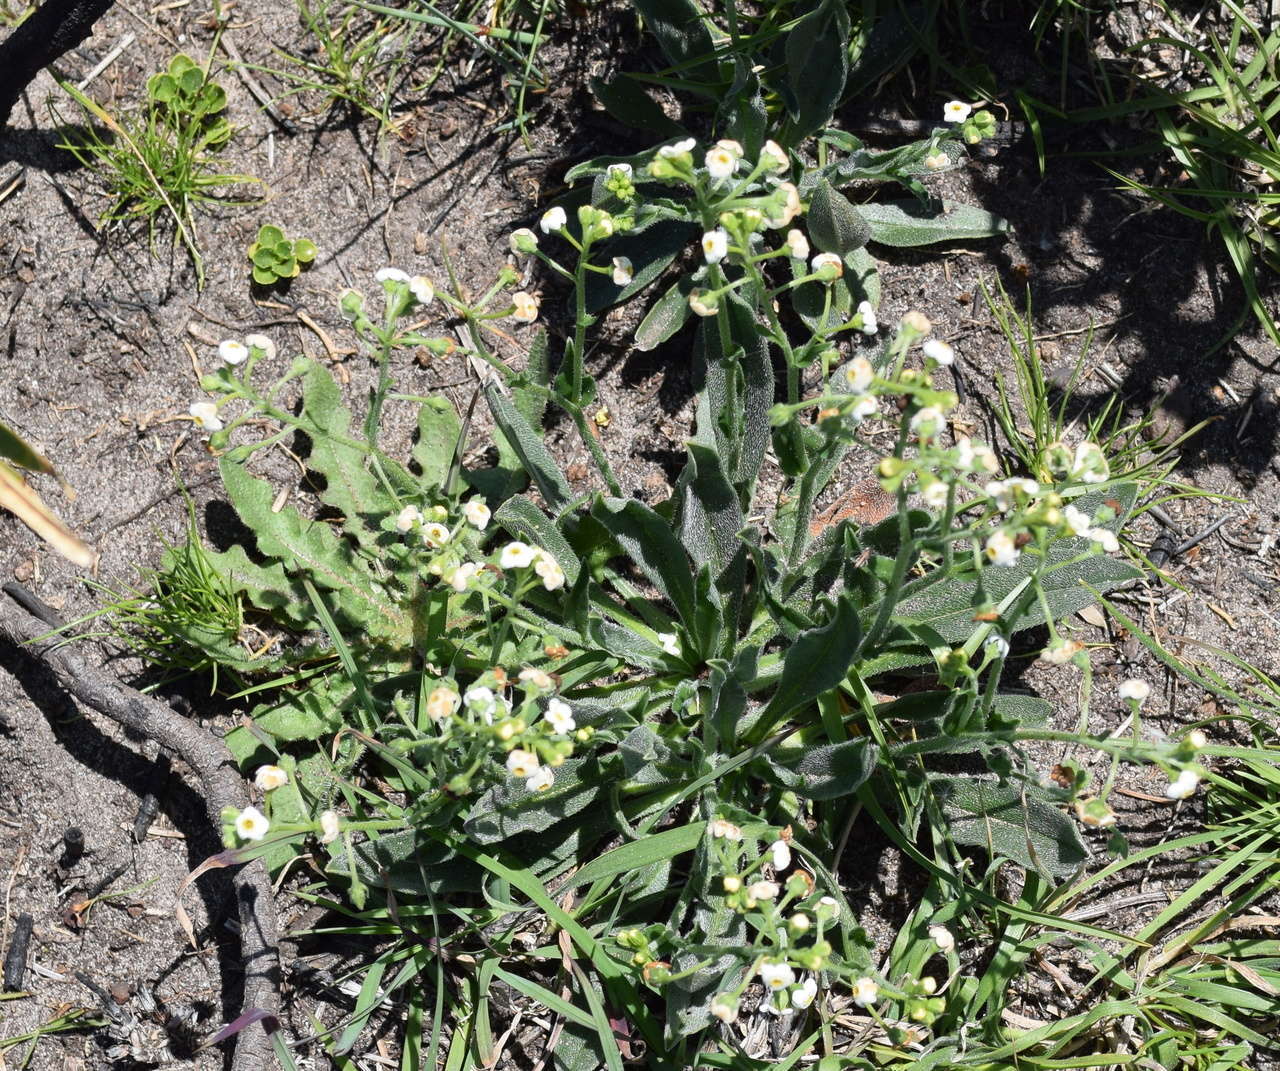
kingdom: Plantae
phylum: Tracheophyta
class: Magnoliopsida
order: Boraginales
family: Boraginaceae
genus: Hackelia
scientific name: Hackelia suaveolens
